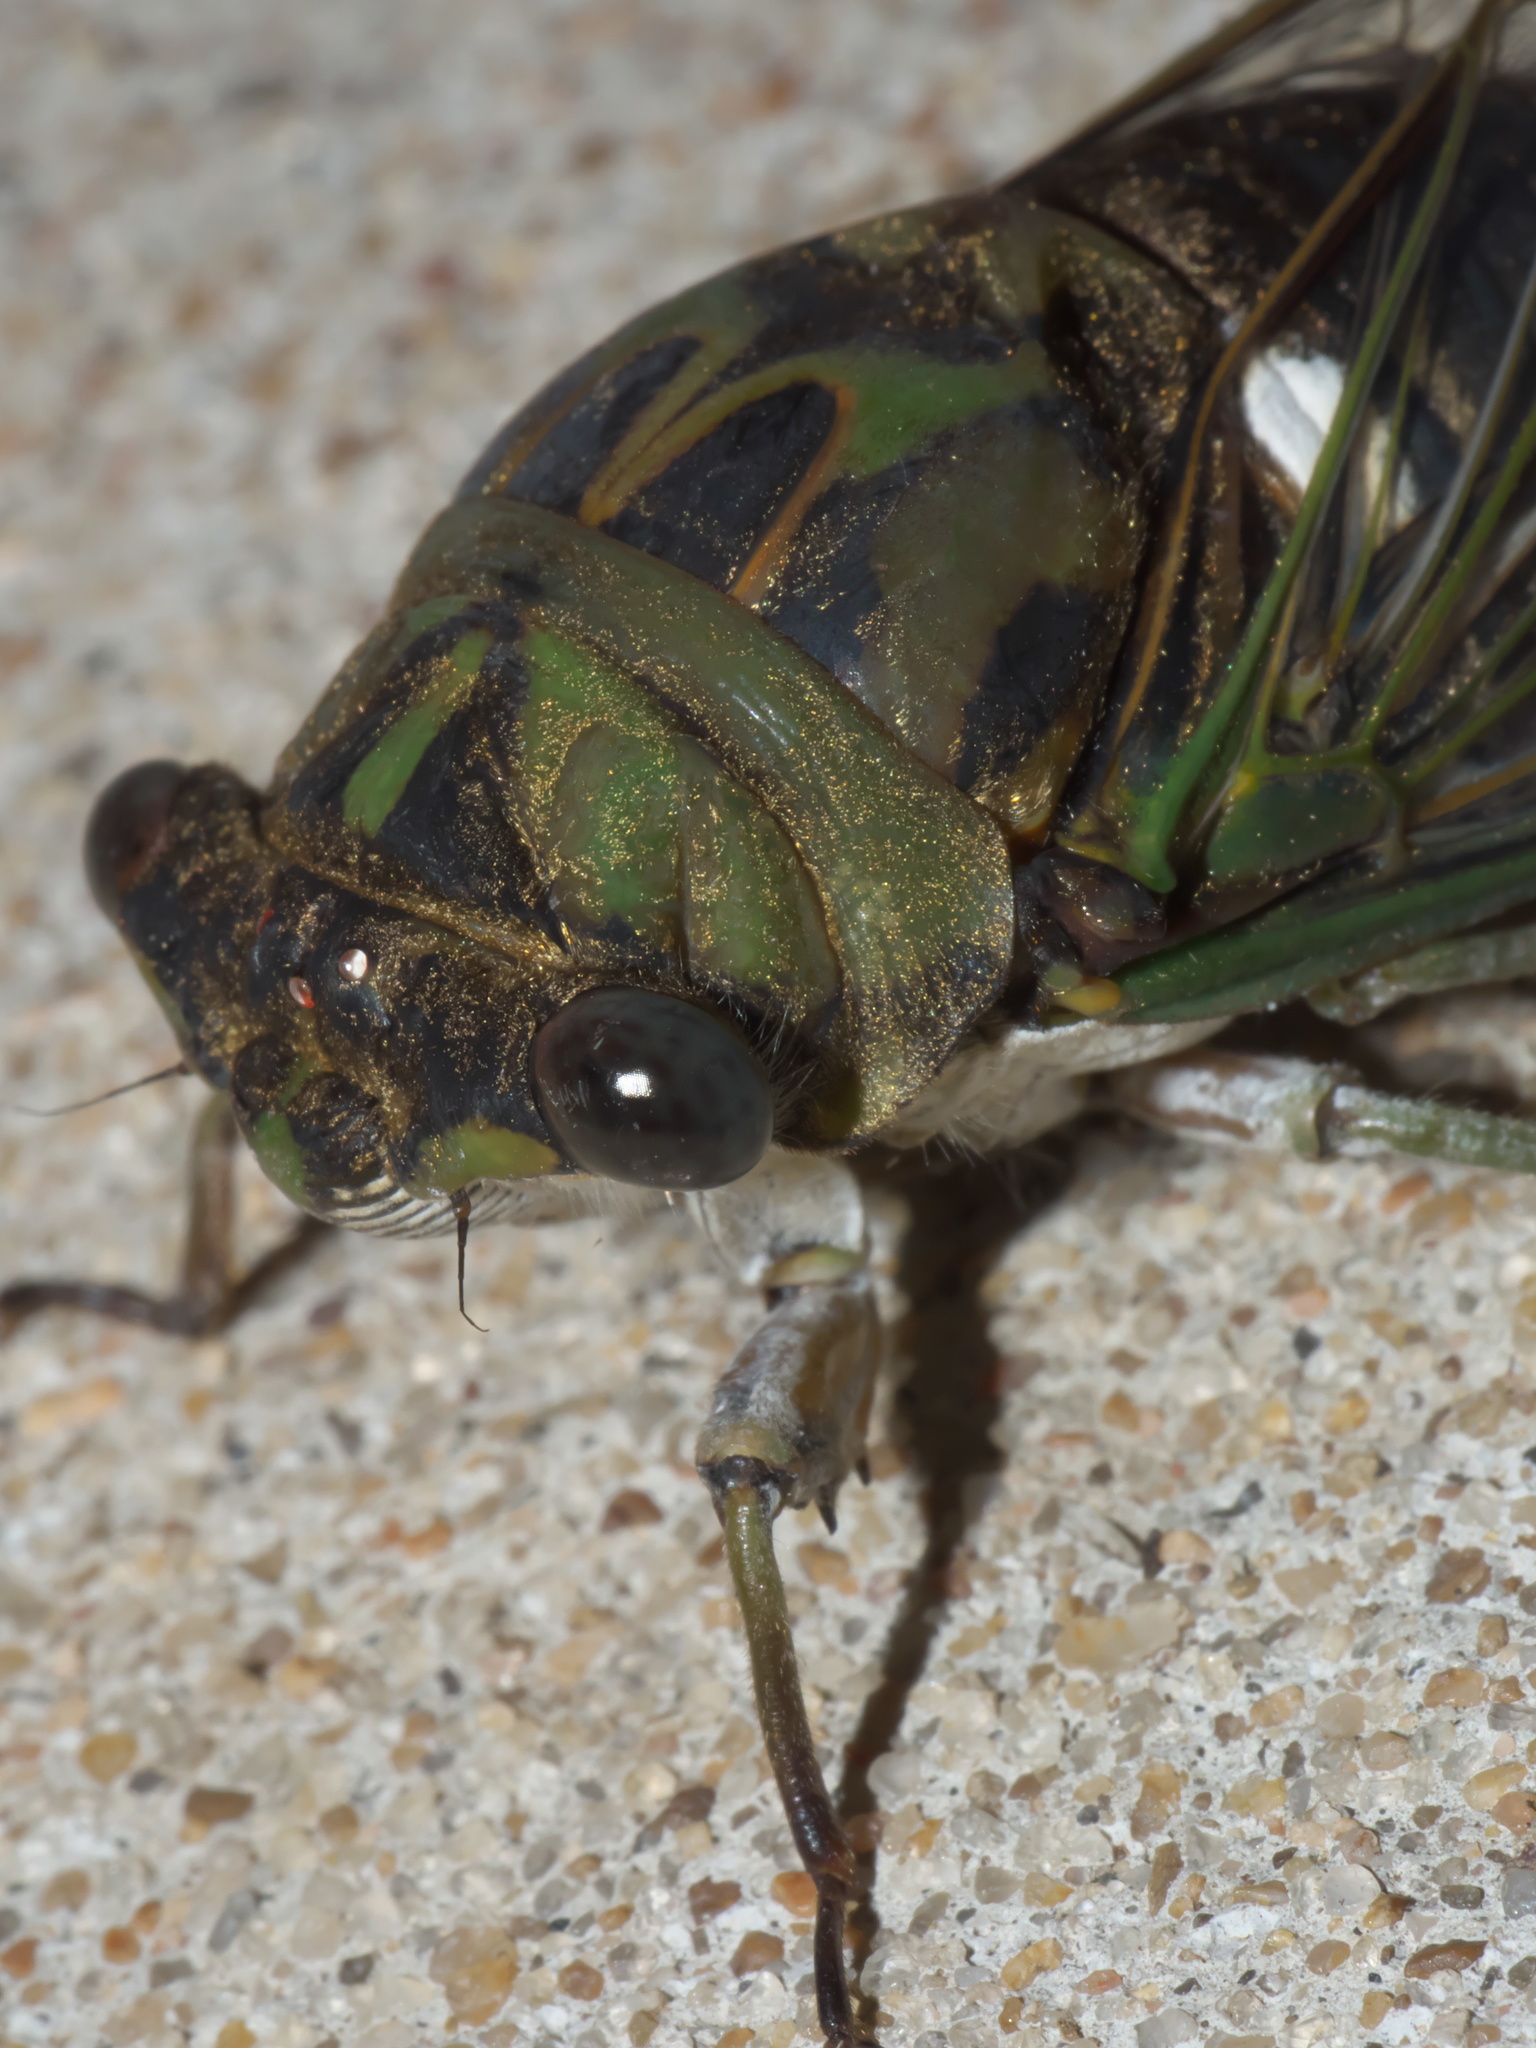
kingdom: Animalia
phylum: Arthropoda
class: Insecta
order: Hemiptera
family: Cicadidae
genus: Neotibicen
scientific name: Neotibicen pruinosus
